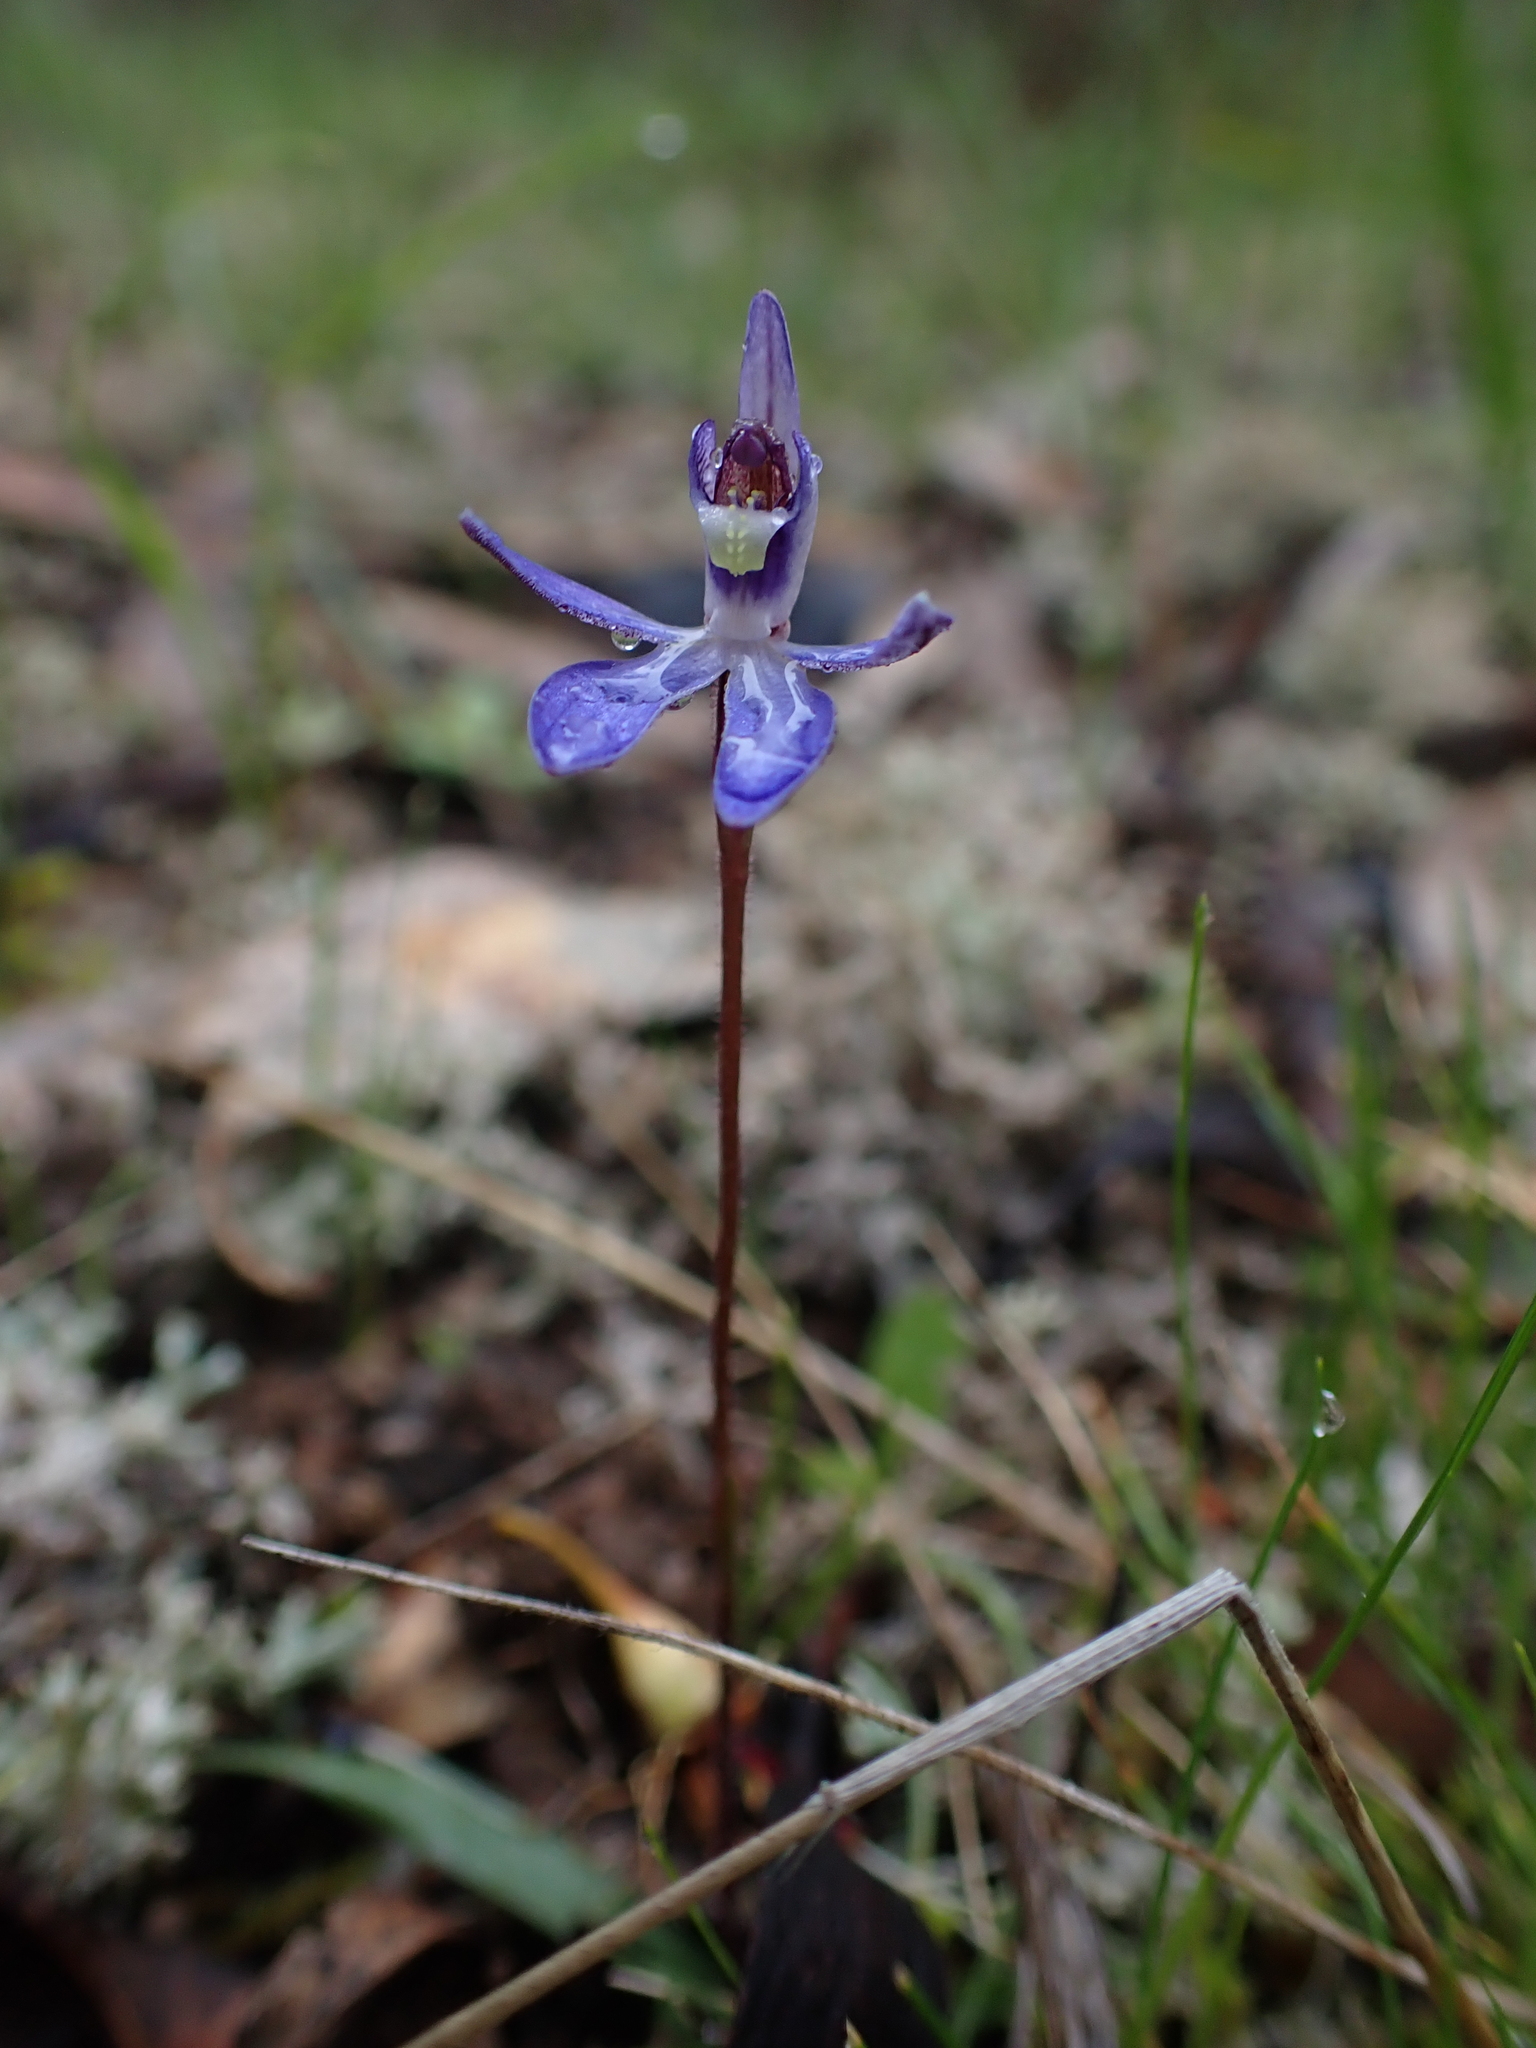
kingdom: Plantae
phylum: Tracheophyta
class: Liliopsida
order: Asparagales
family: Orchidaceae
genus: Caladenia
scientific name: Caladenia caerulea
